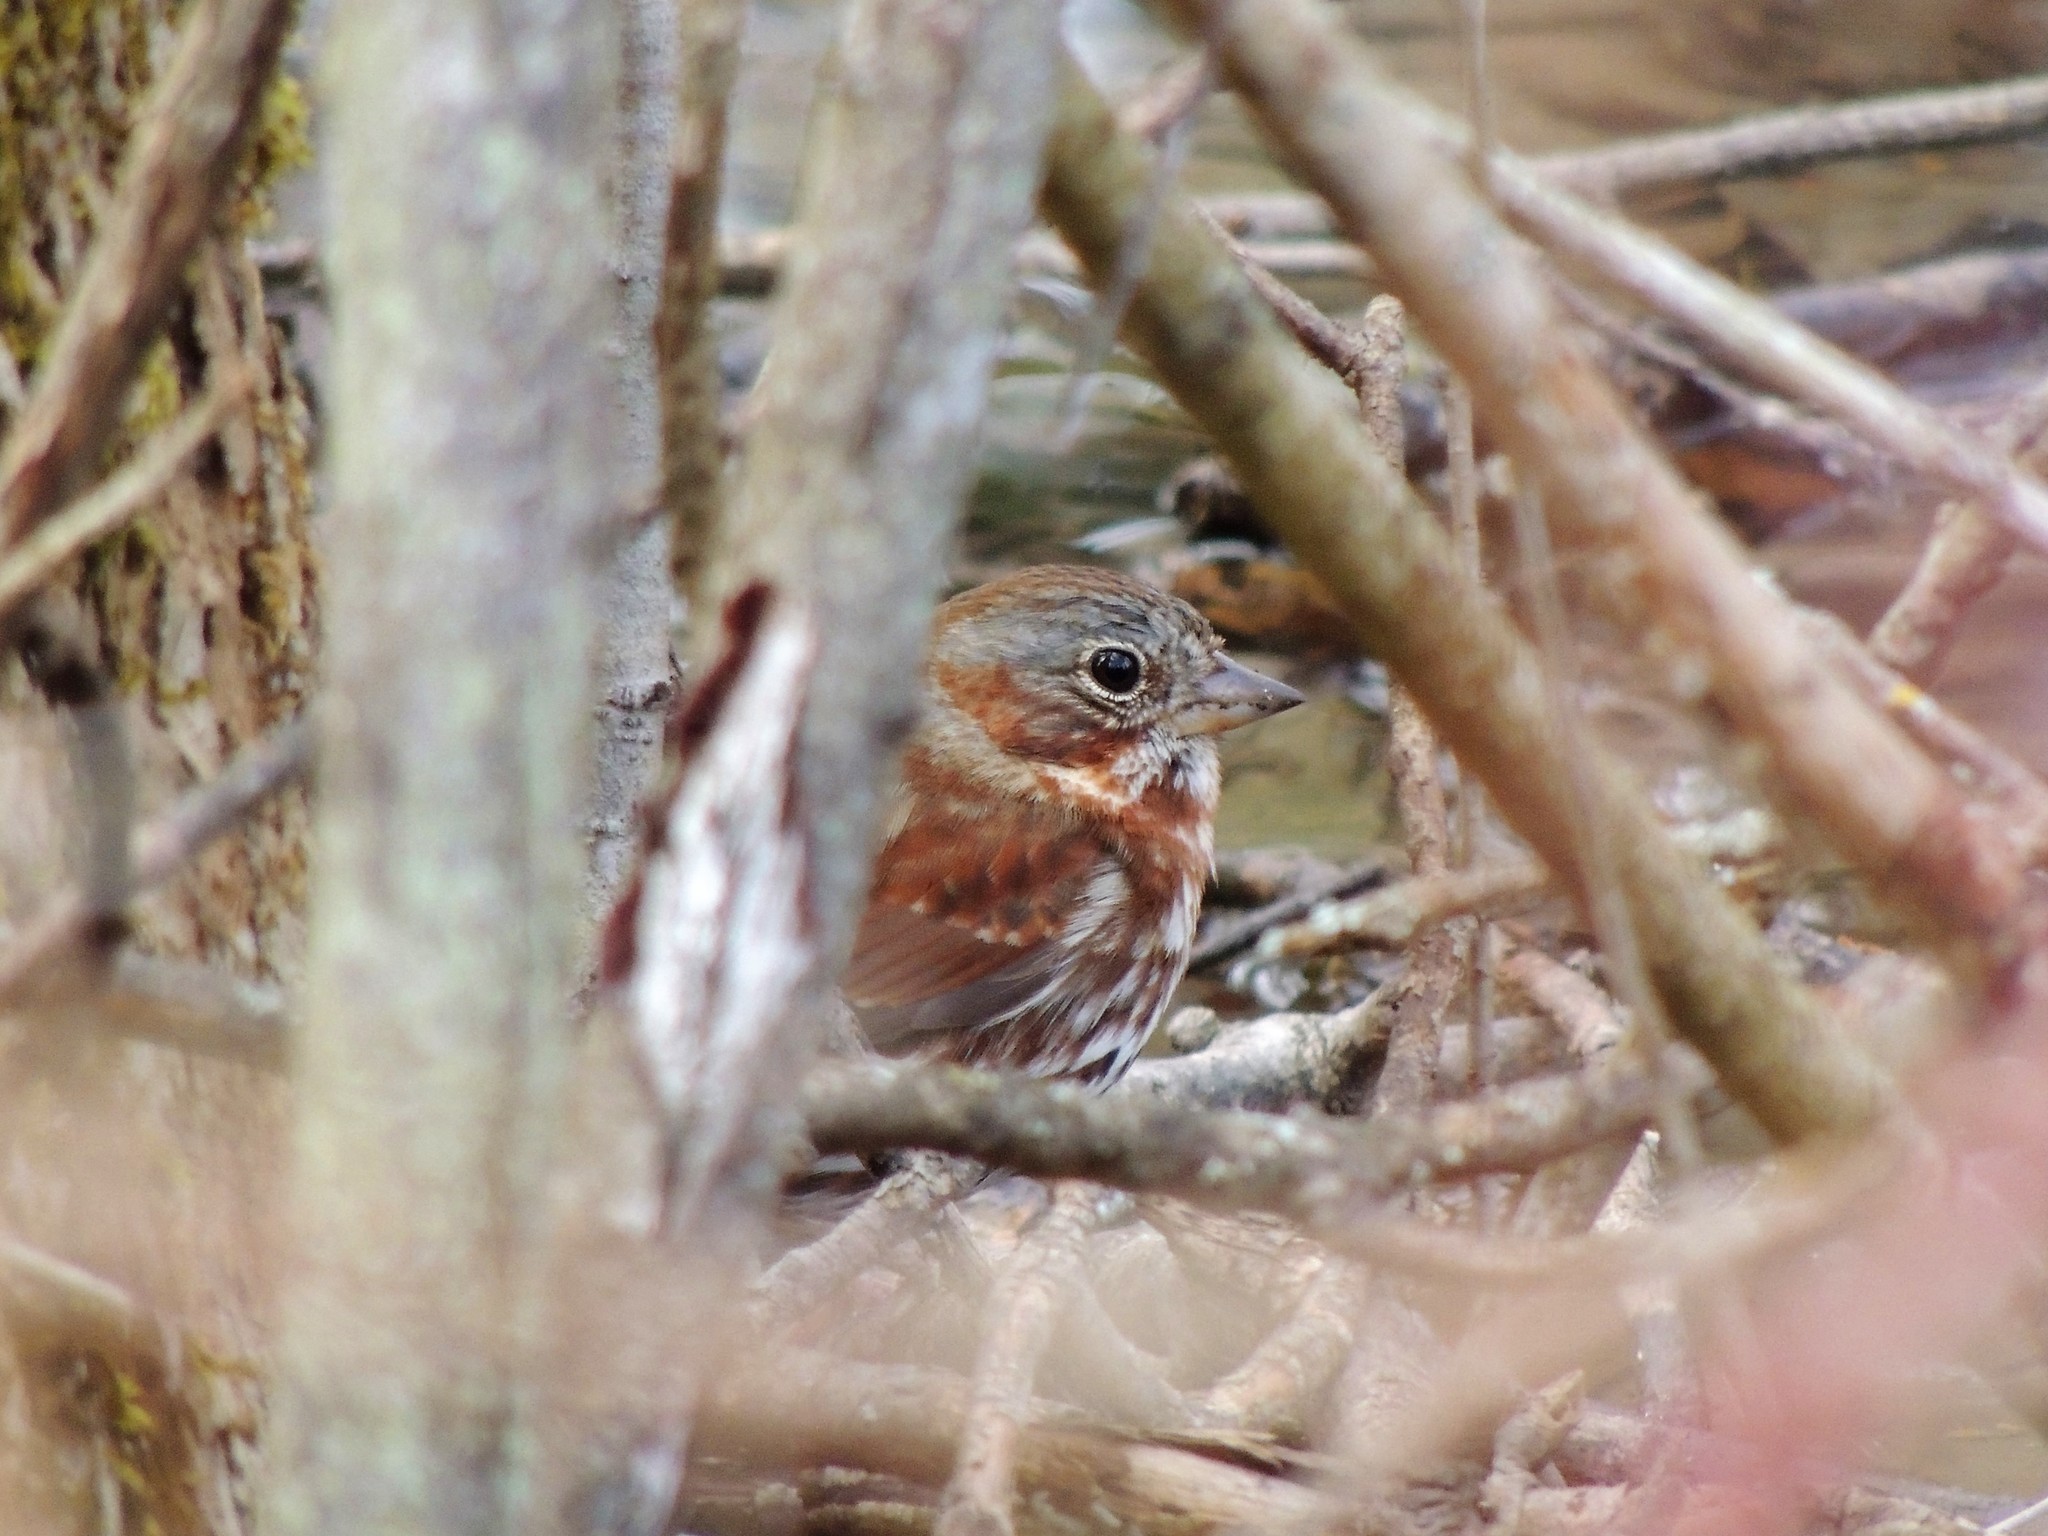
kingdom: Animalia
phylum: Chordata
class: Aves
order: Passeriformes
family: Passerellidae
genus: Passerella
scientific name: Passerella iliaca
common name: Fox sparrow
